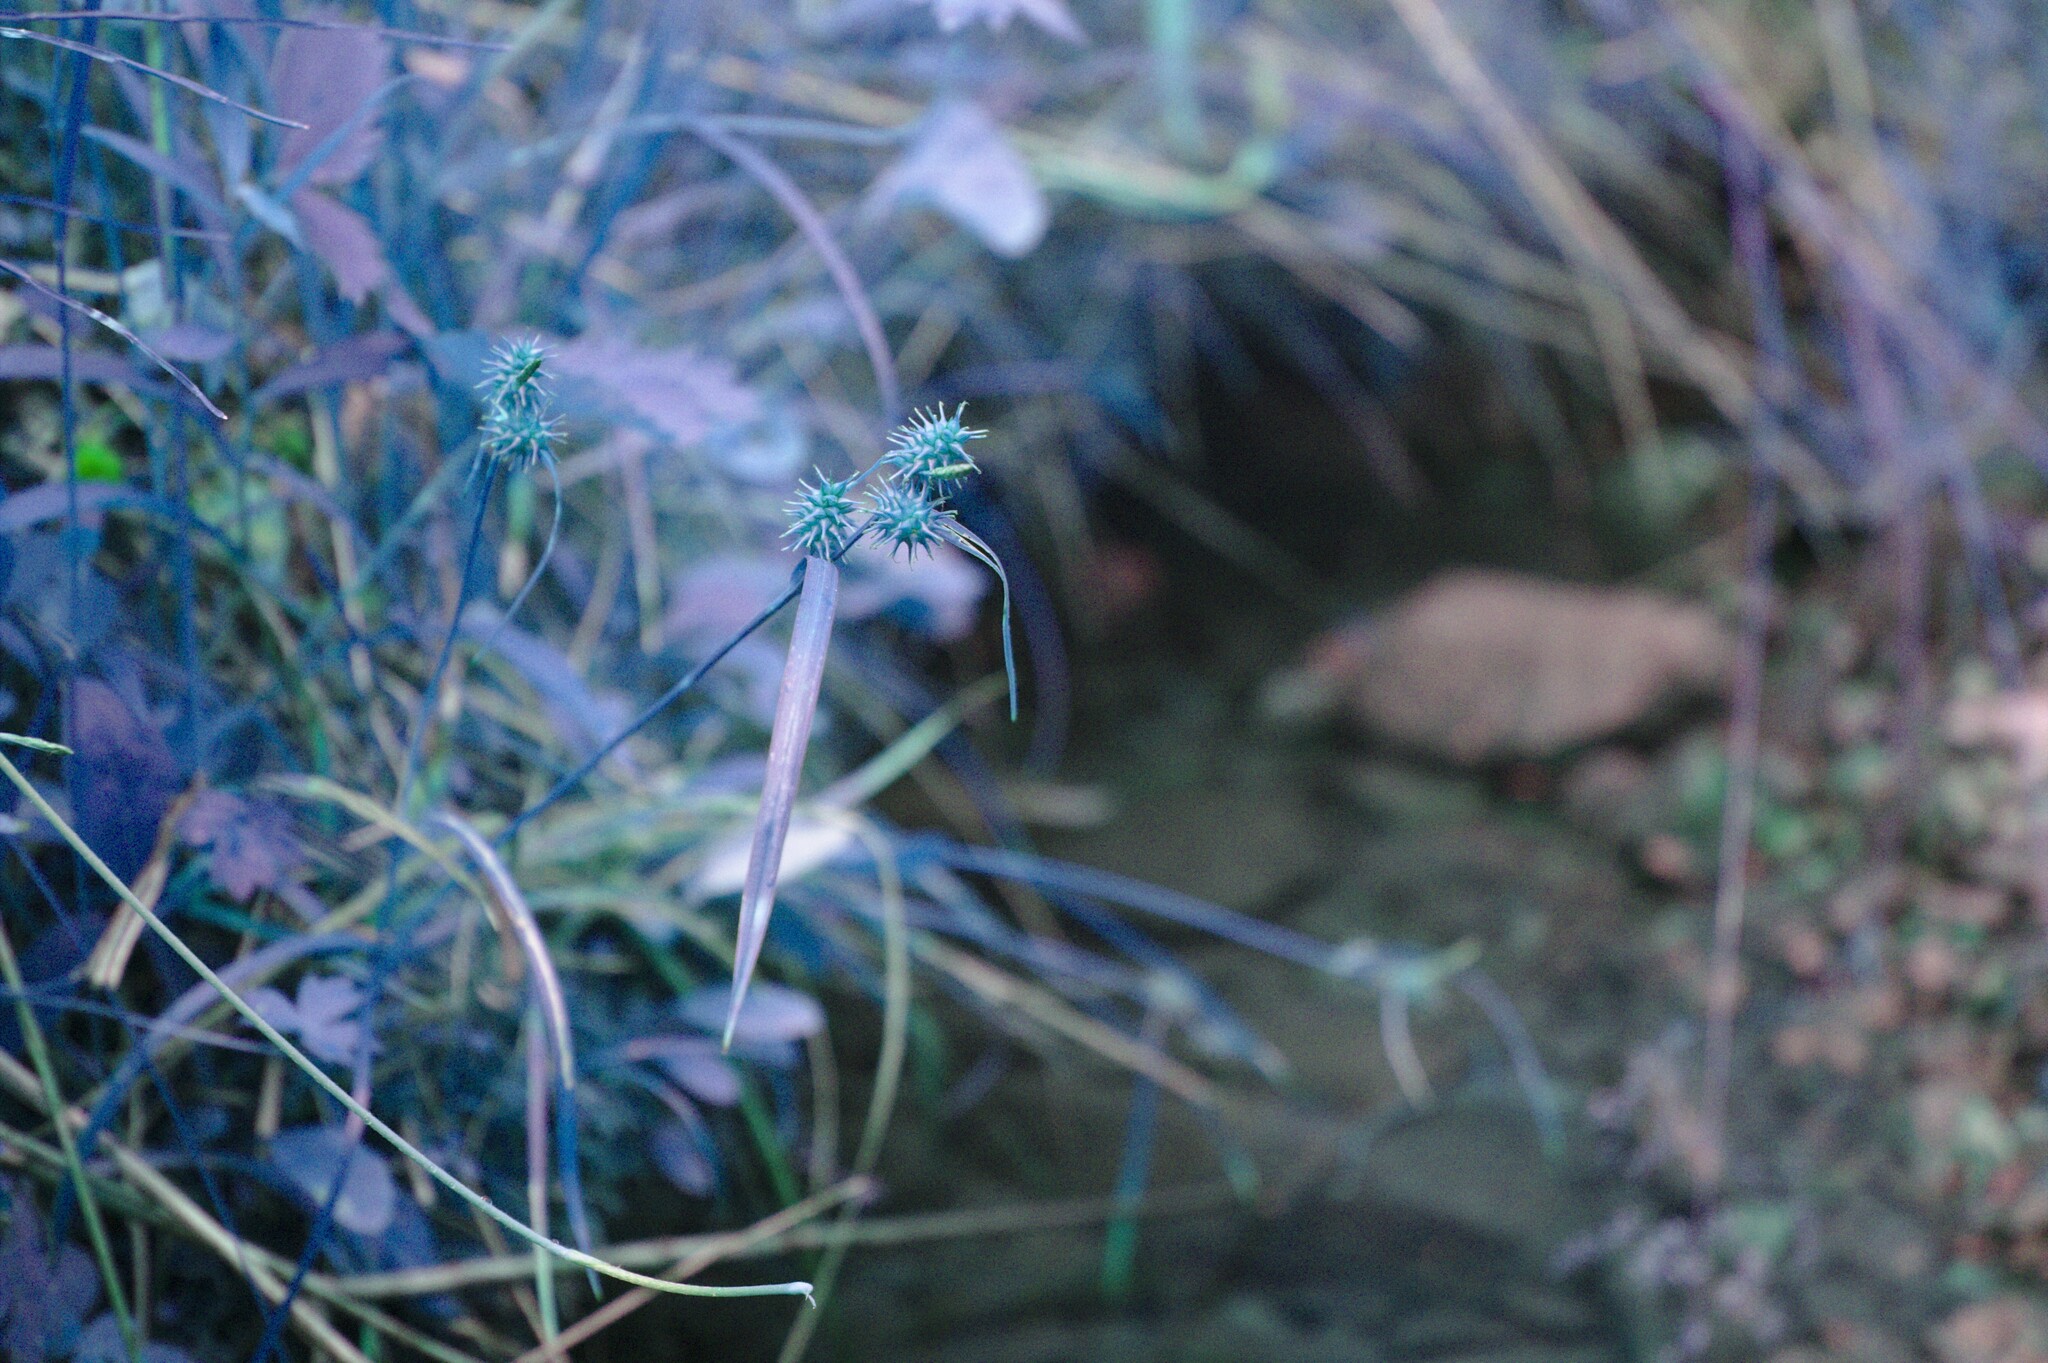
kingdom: Plantae
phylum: Tracheophyta
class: Liliopsida
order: Poales
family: Cyperaceae
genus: Carex
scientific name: Carex flava
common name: Large yellow-sedge
